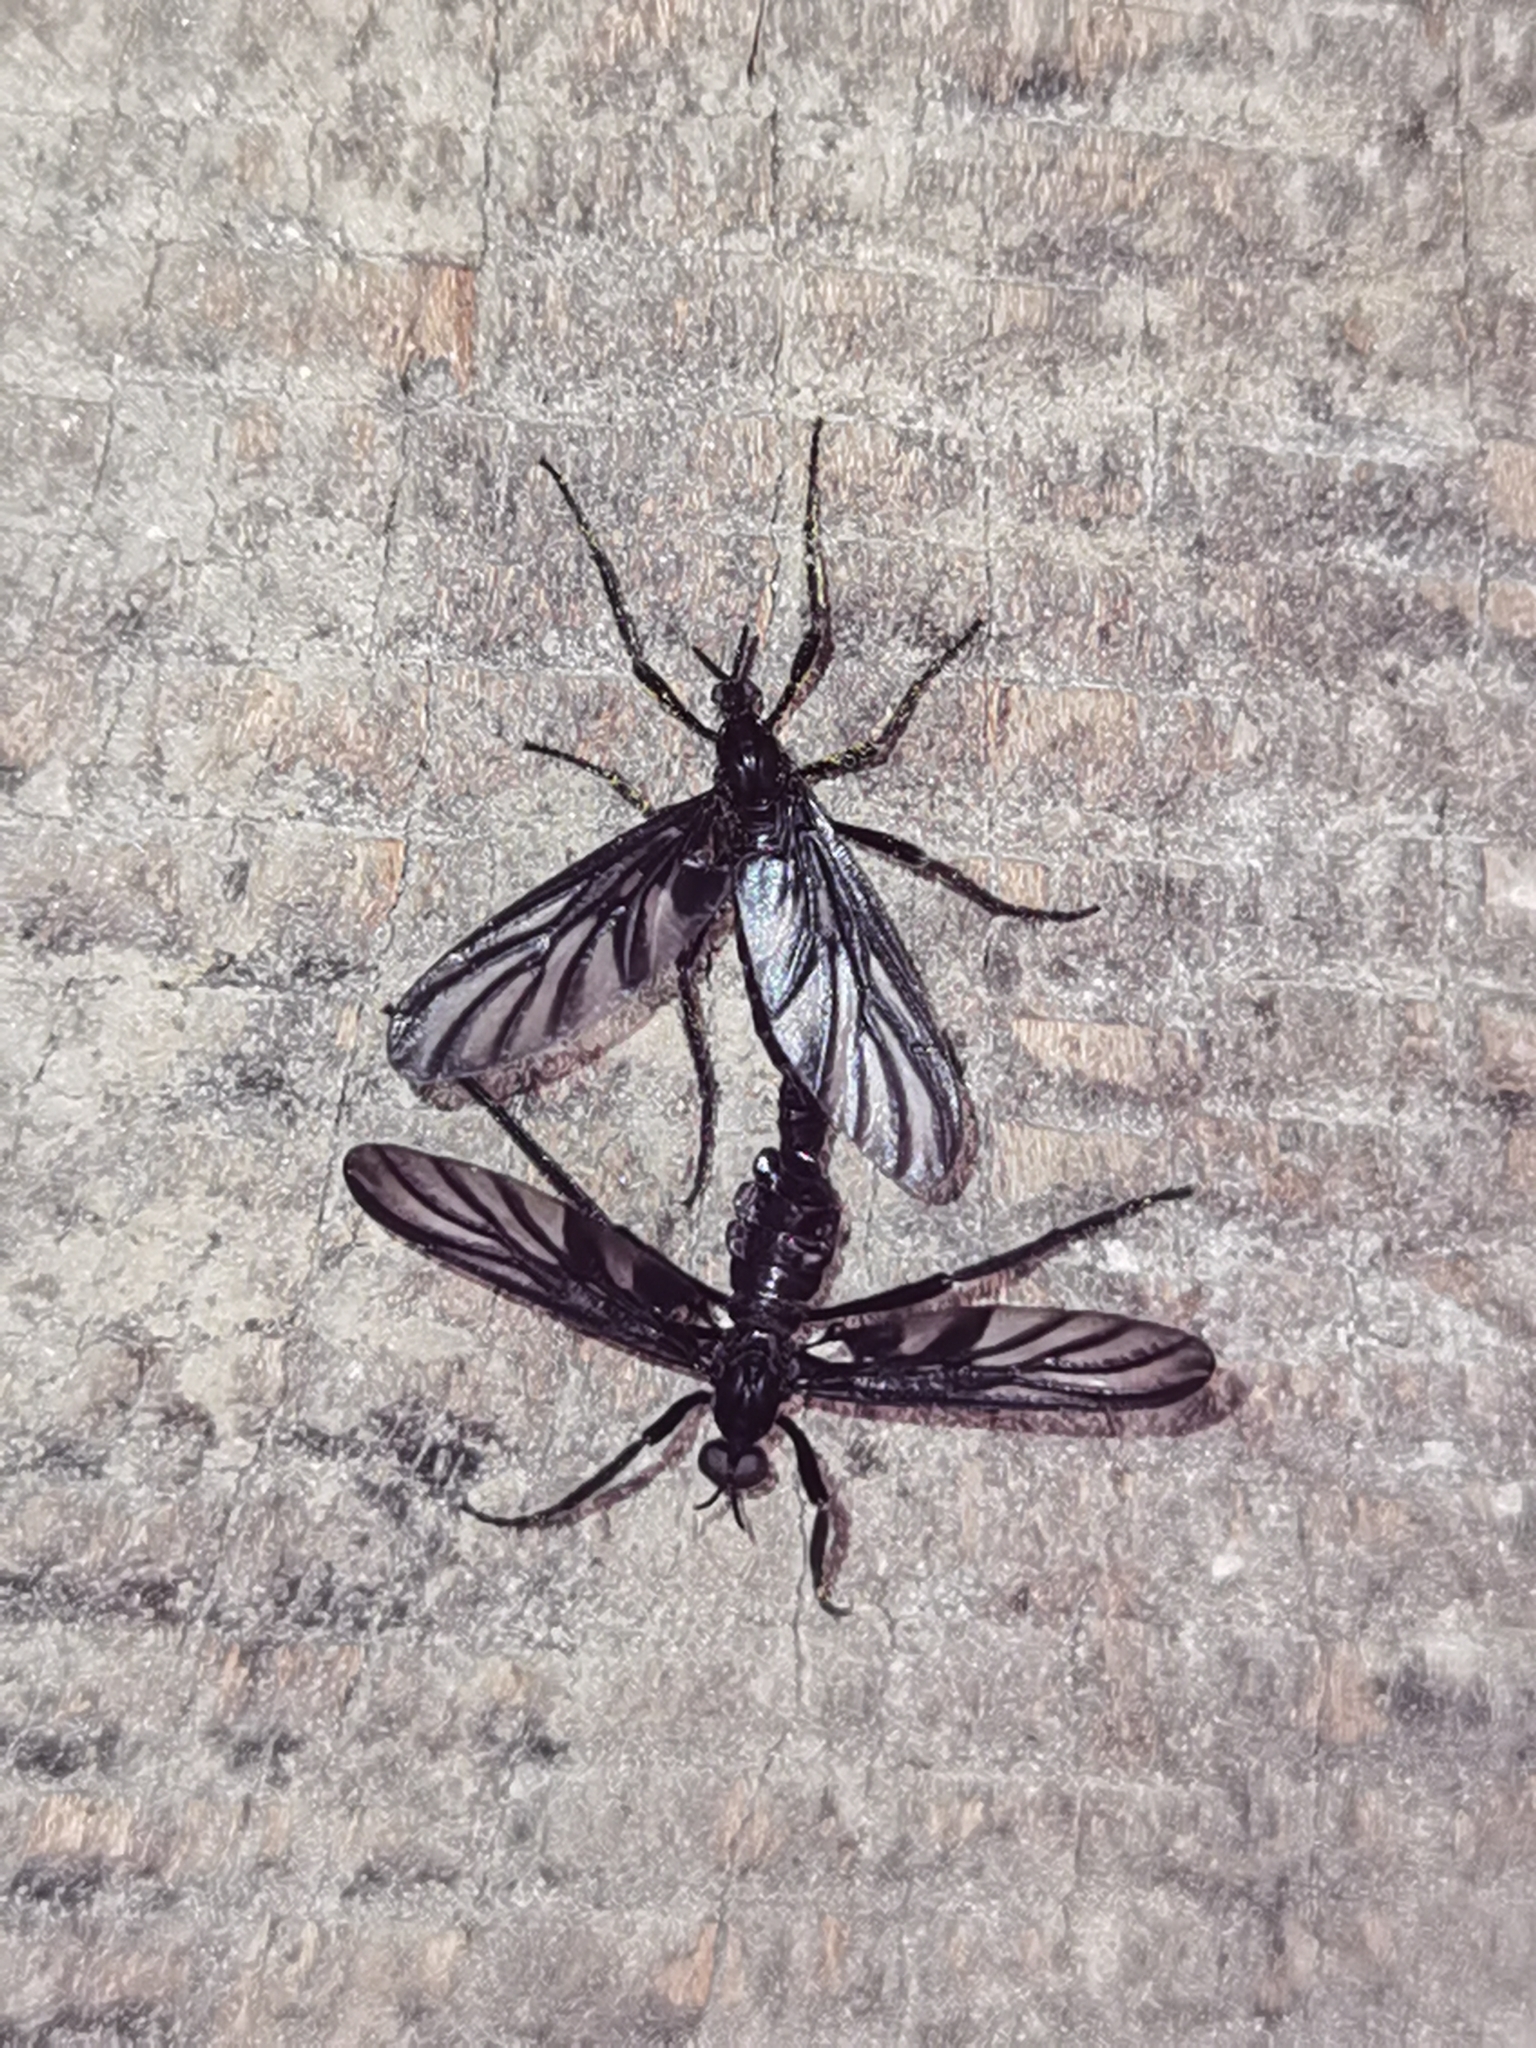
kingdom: Animalia
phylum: Arthropoda
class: Insecta
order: Diptera
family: Bibionidae
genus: Plecia
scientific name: Plecia plagiata
